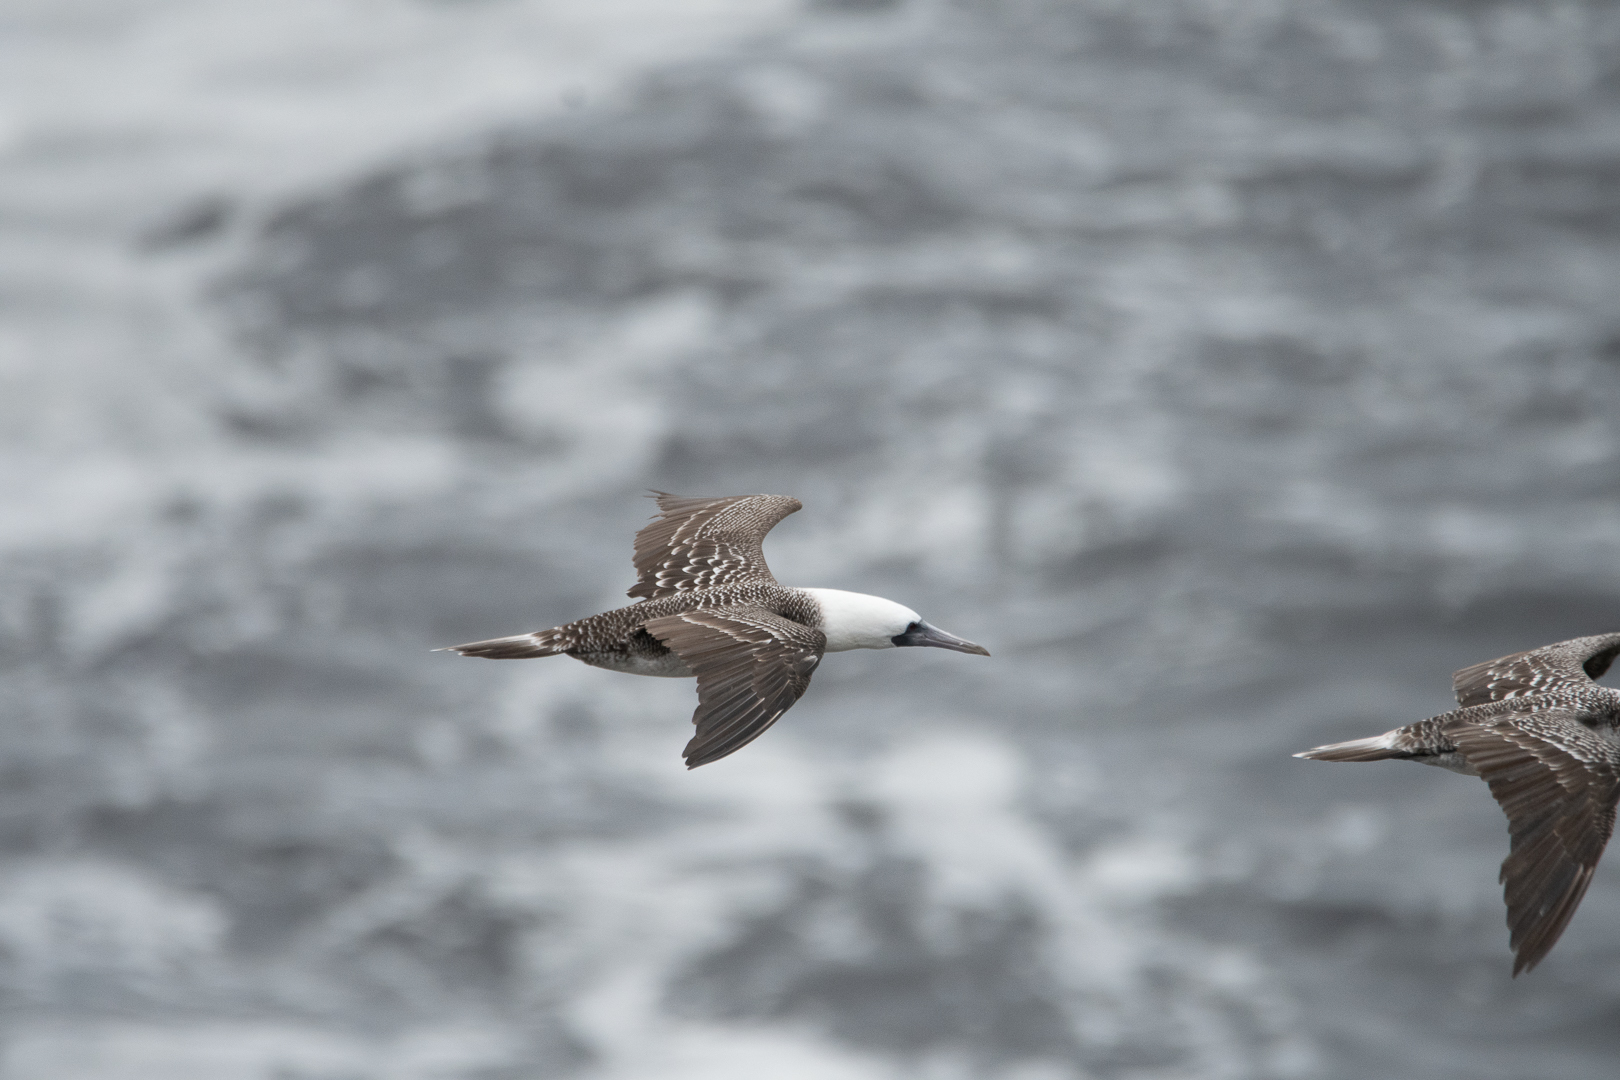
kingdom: Animalia
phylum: Chordata
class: Aves
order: Suliformes
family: Sulidae
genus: Sula
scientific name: Sula variegata
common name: Peruvian booby
